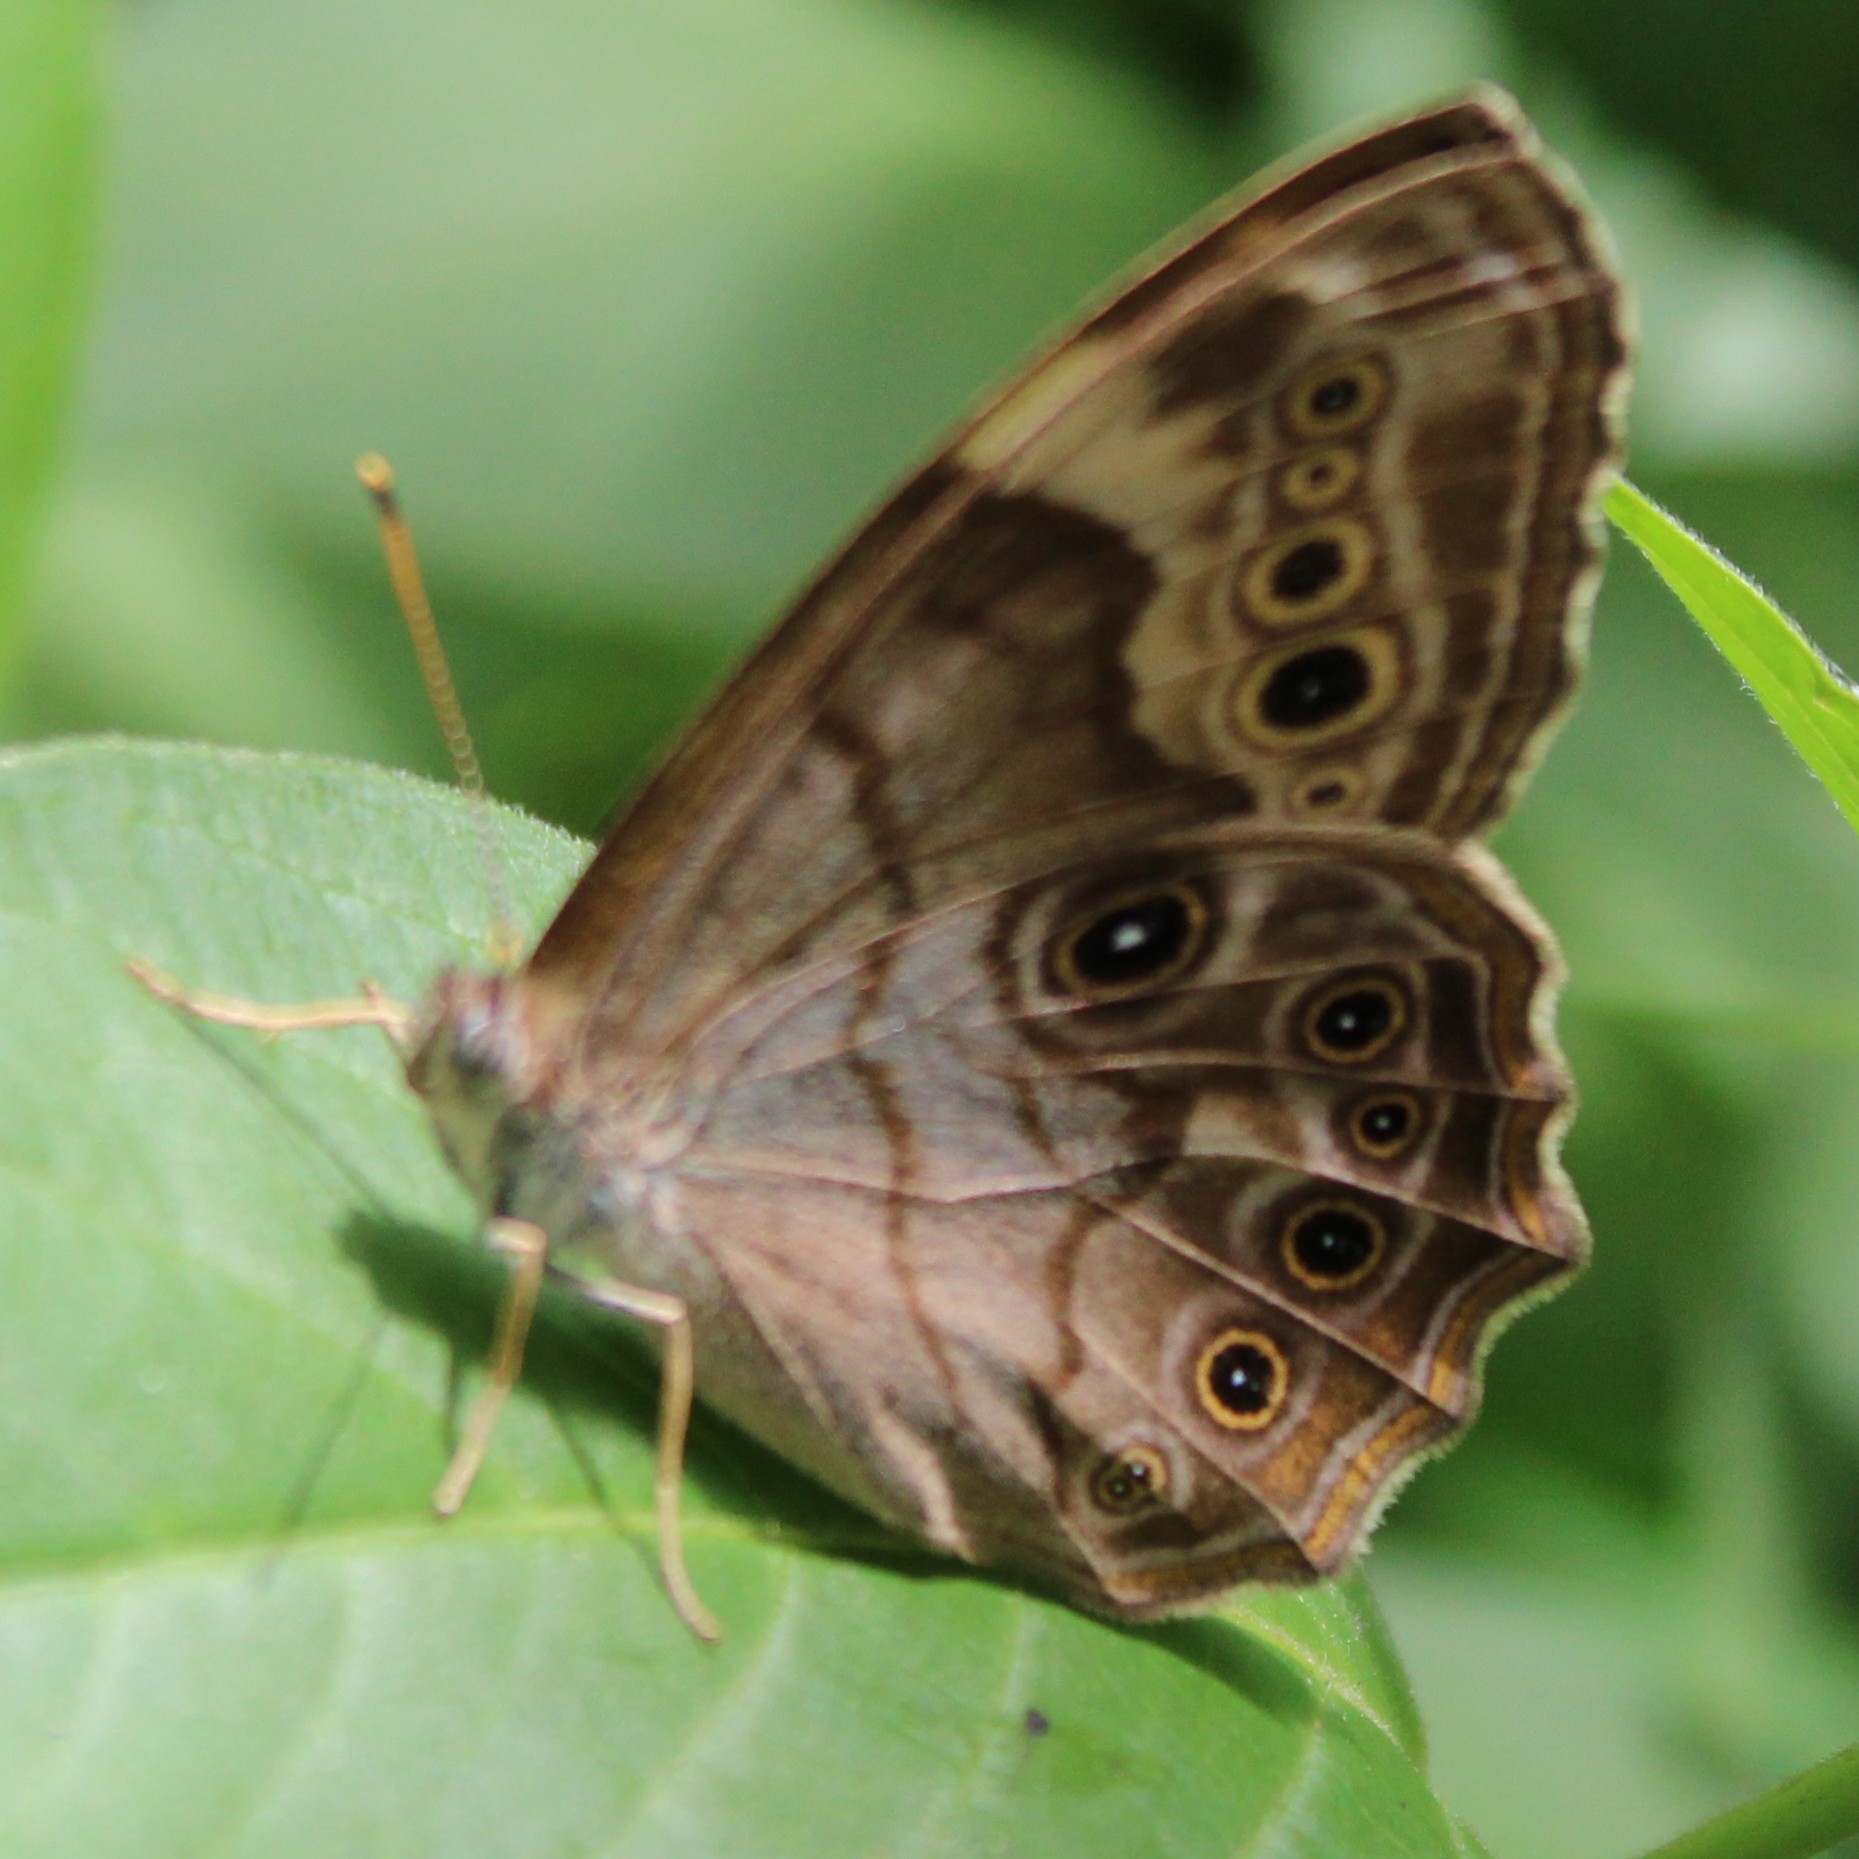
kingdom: Animalia
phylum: Arthropoda
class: Insecta
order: Lepidoptera
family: Nymphalidae
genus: Lethe
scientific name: Lethe anthedon
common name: Northern pearly-eye
